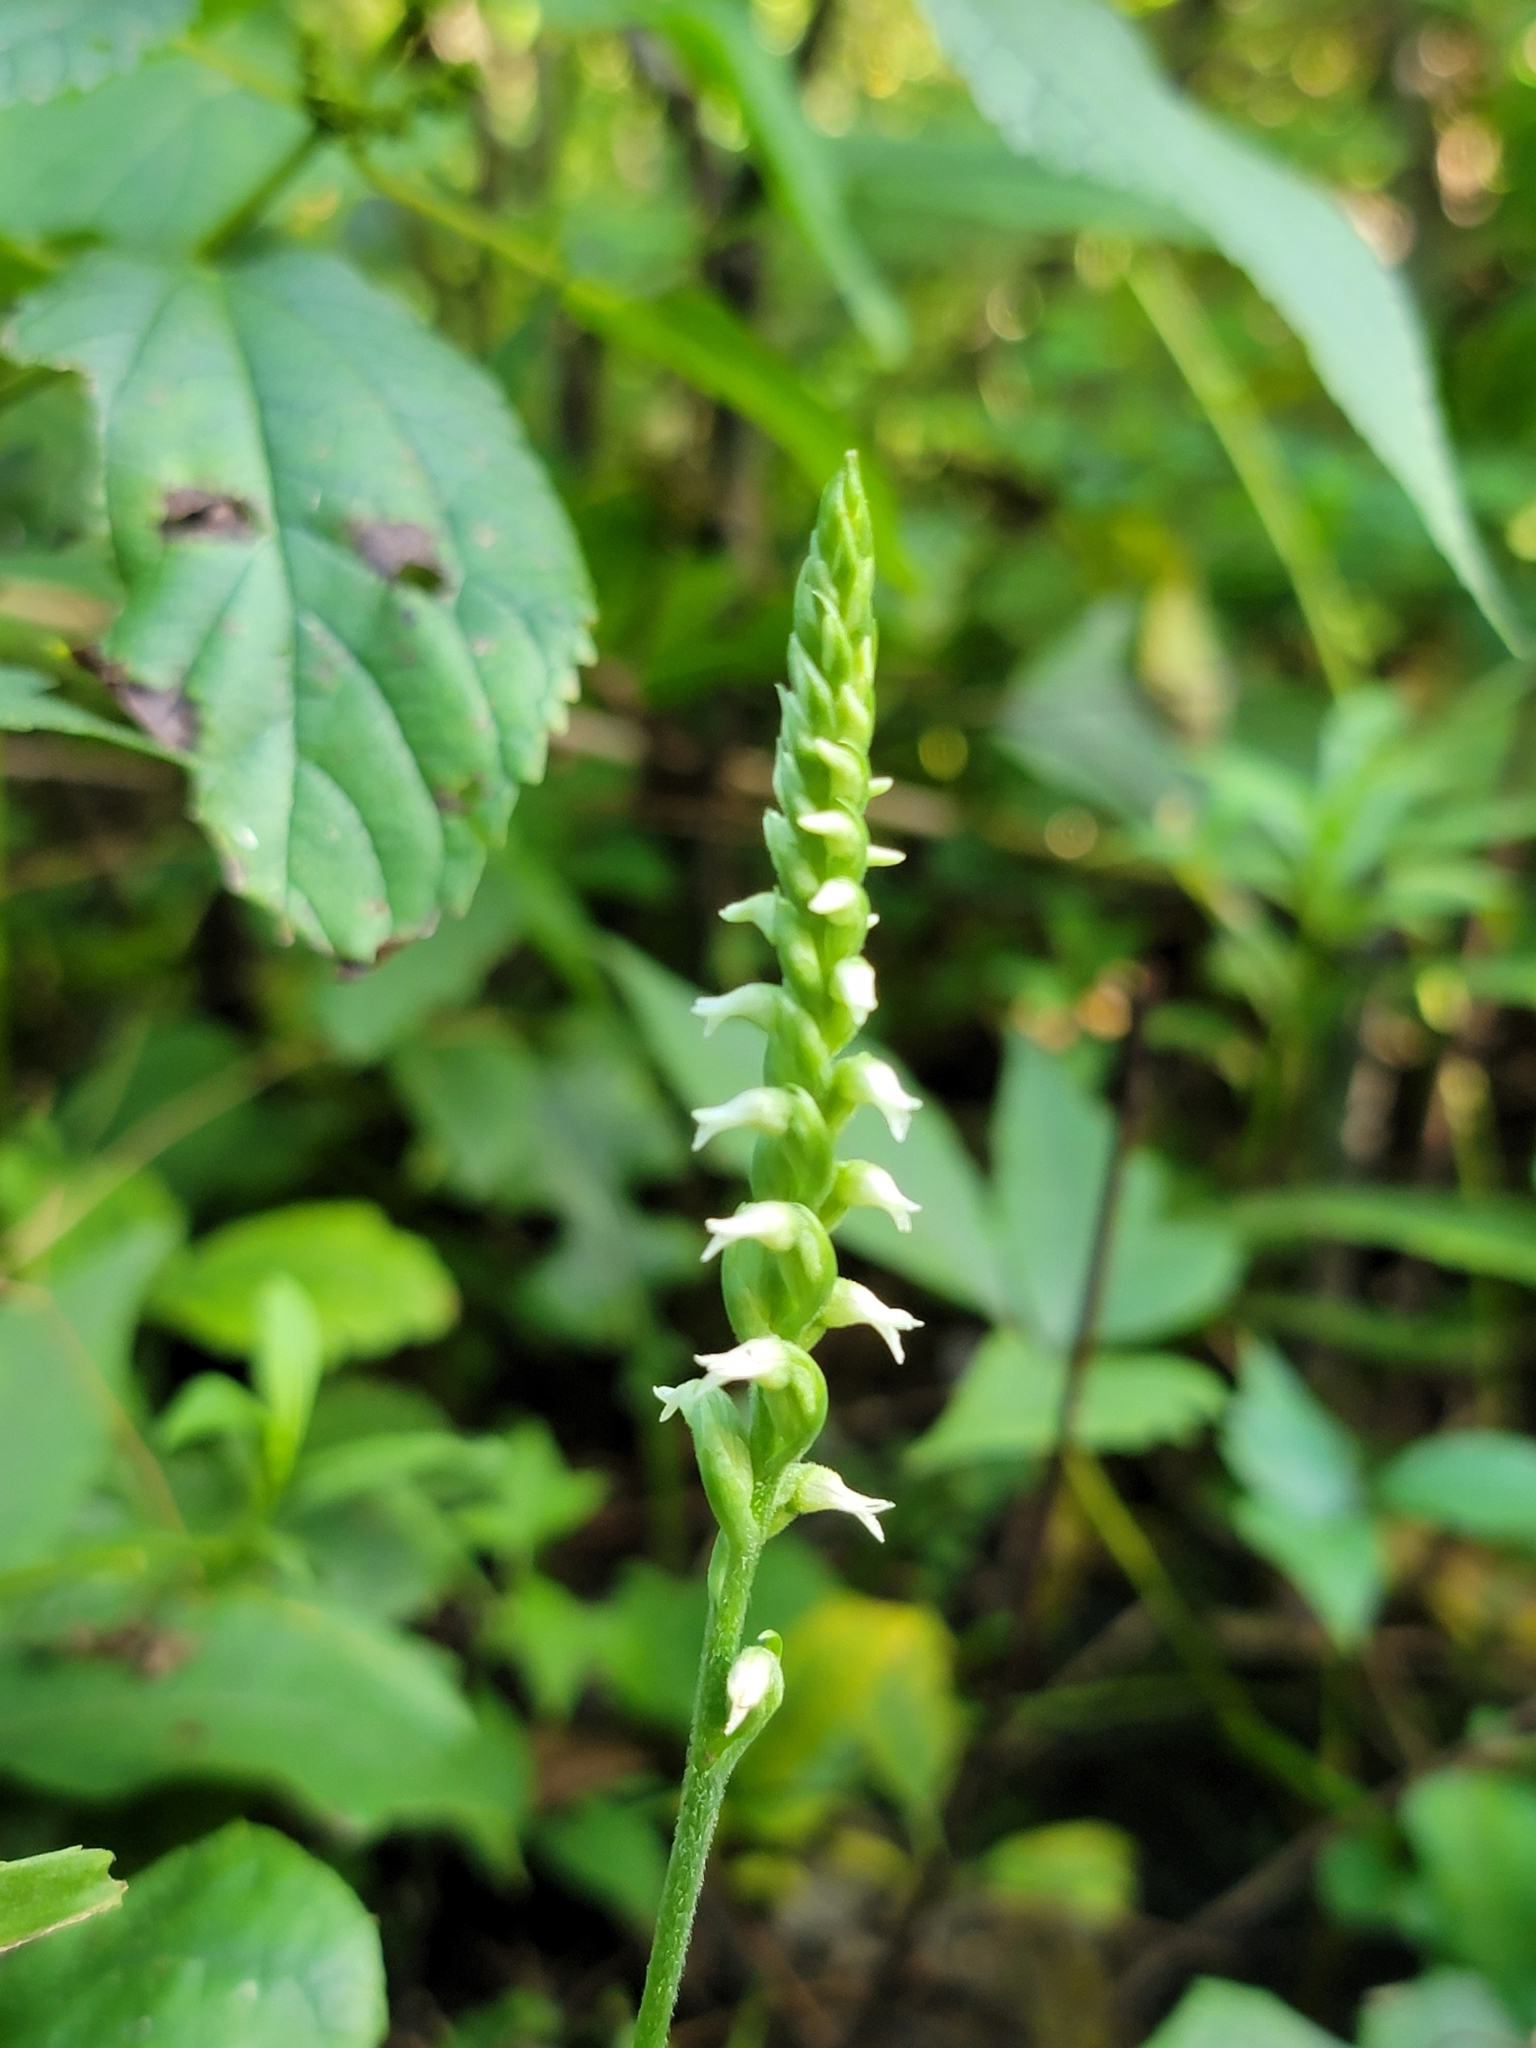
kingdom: Plantae
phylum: Tracheophyta
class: Liliopsida
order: Asparagales
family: Orchidaceae
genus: Spiranthes
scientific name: Spiranthes ovalis
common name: October ladies'-tresses
